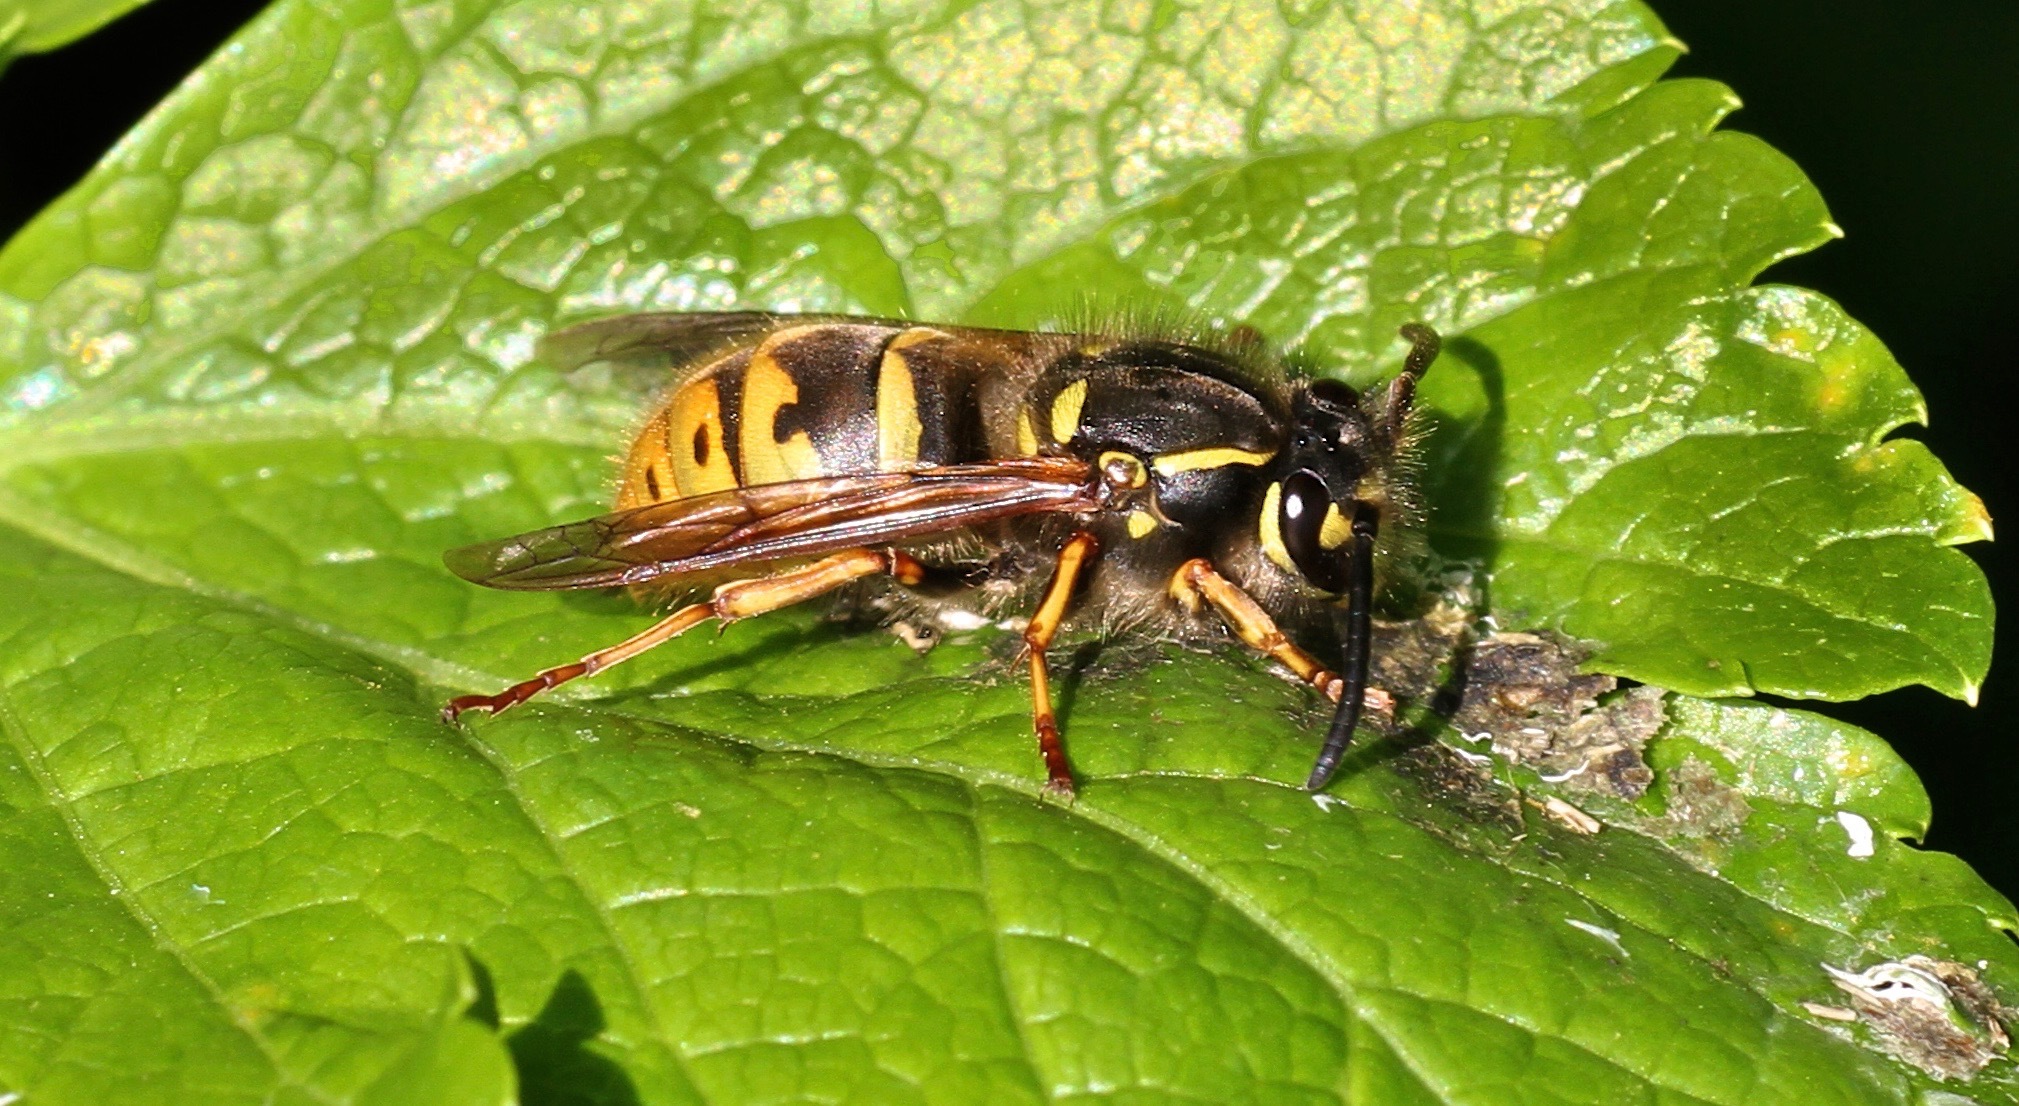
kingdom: Animalia
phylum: Arthropoda
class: Insecta
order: Hymenoptera
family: Vespidae
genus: Vespula
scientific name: Vespula vulgaris
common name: Common wasp
